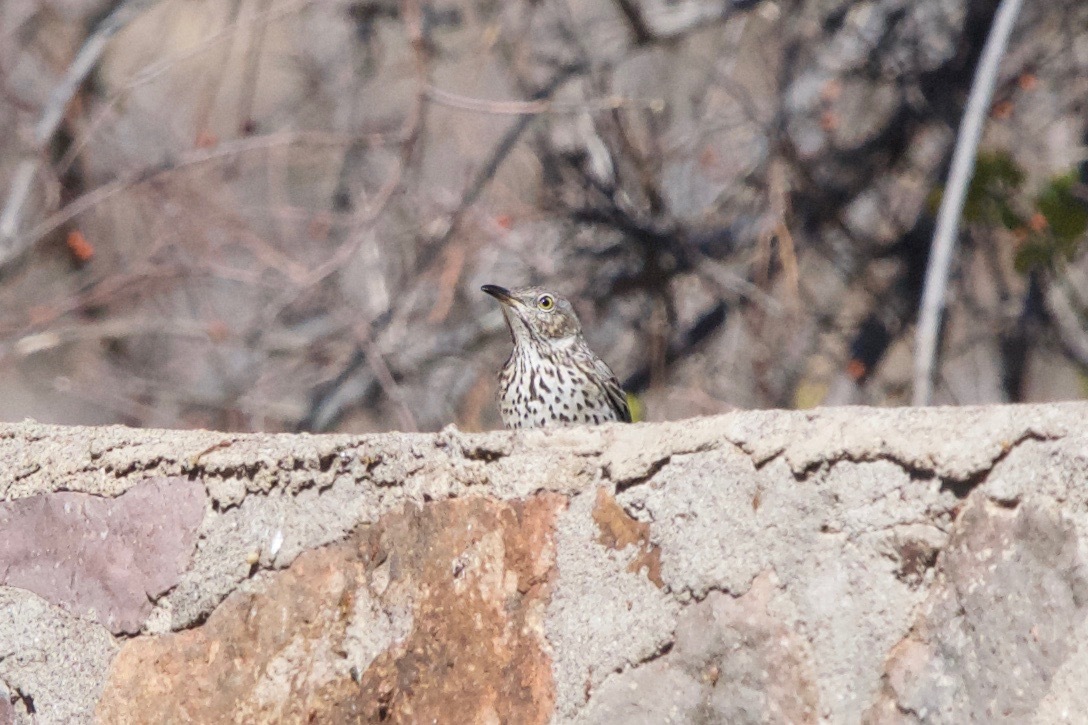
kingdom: Animalia
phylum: Chordata
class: Aves
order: Passeriformes
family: Mimidae
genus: Oreoscoptes
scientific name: Oreoscoptes montanus
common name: Sage thrasher
